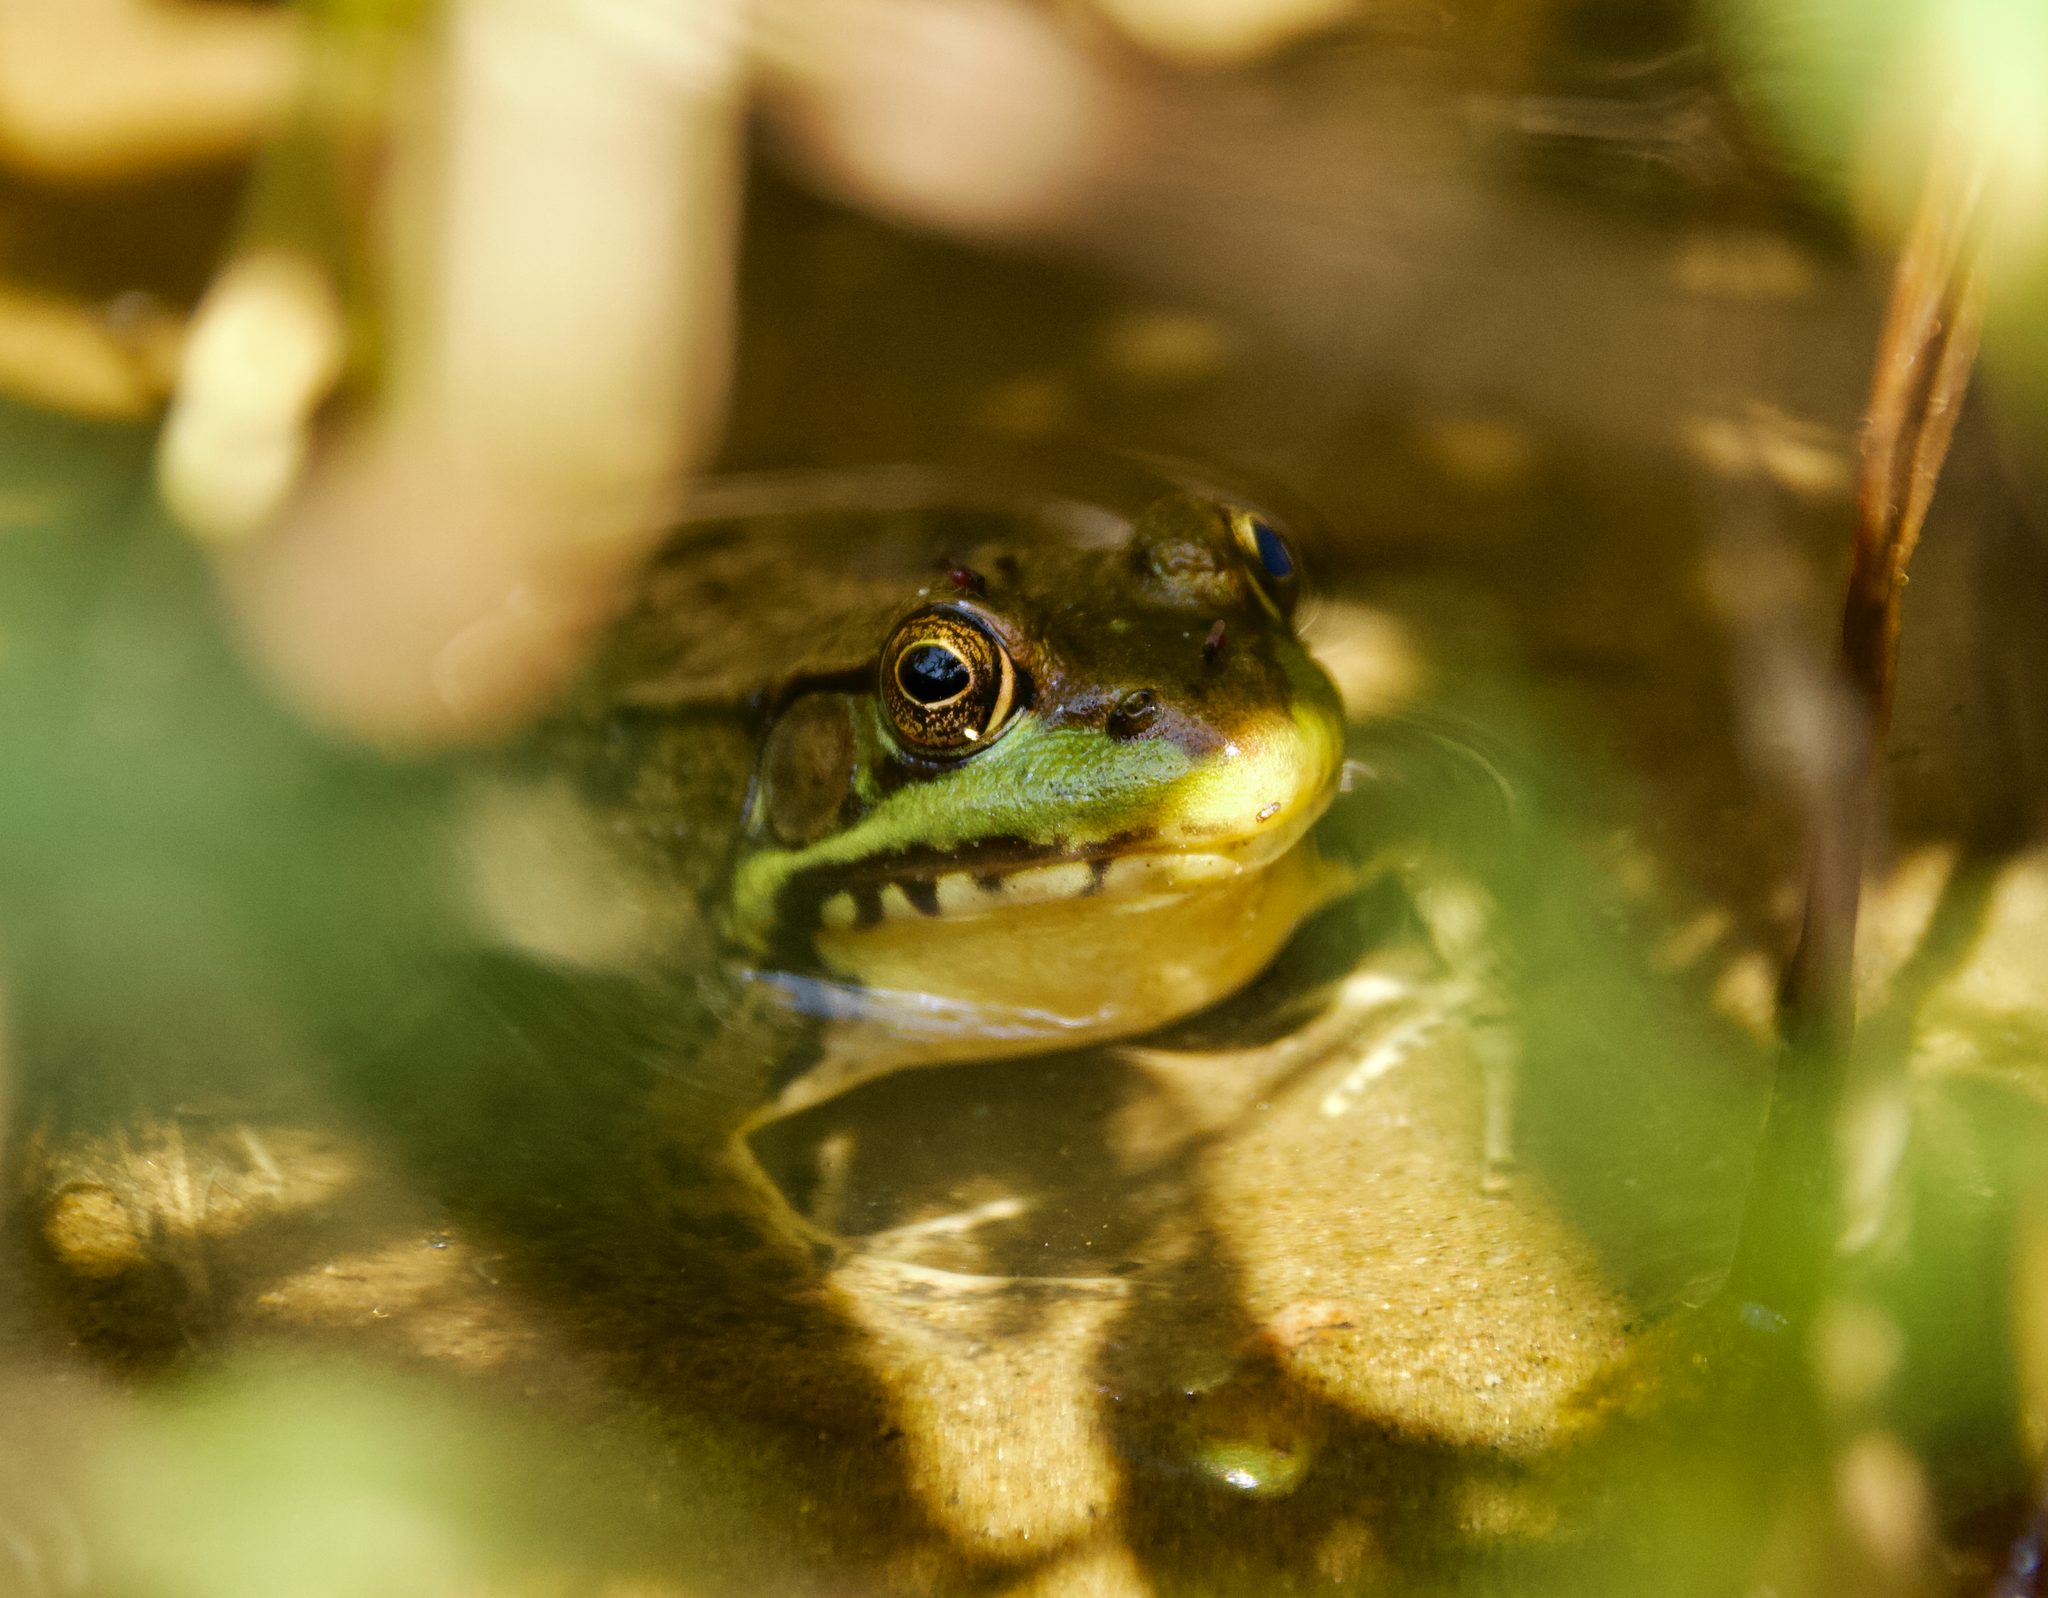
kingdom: Animalia
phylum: Chordata
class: Amphibia
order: Anura
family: Ranidae
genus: Lithobates
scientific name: Lithobates clamitans
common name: Green frog
